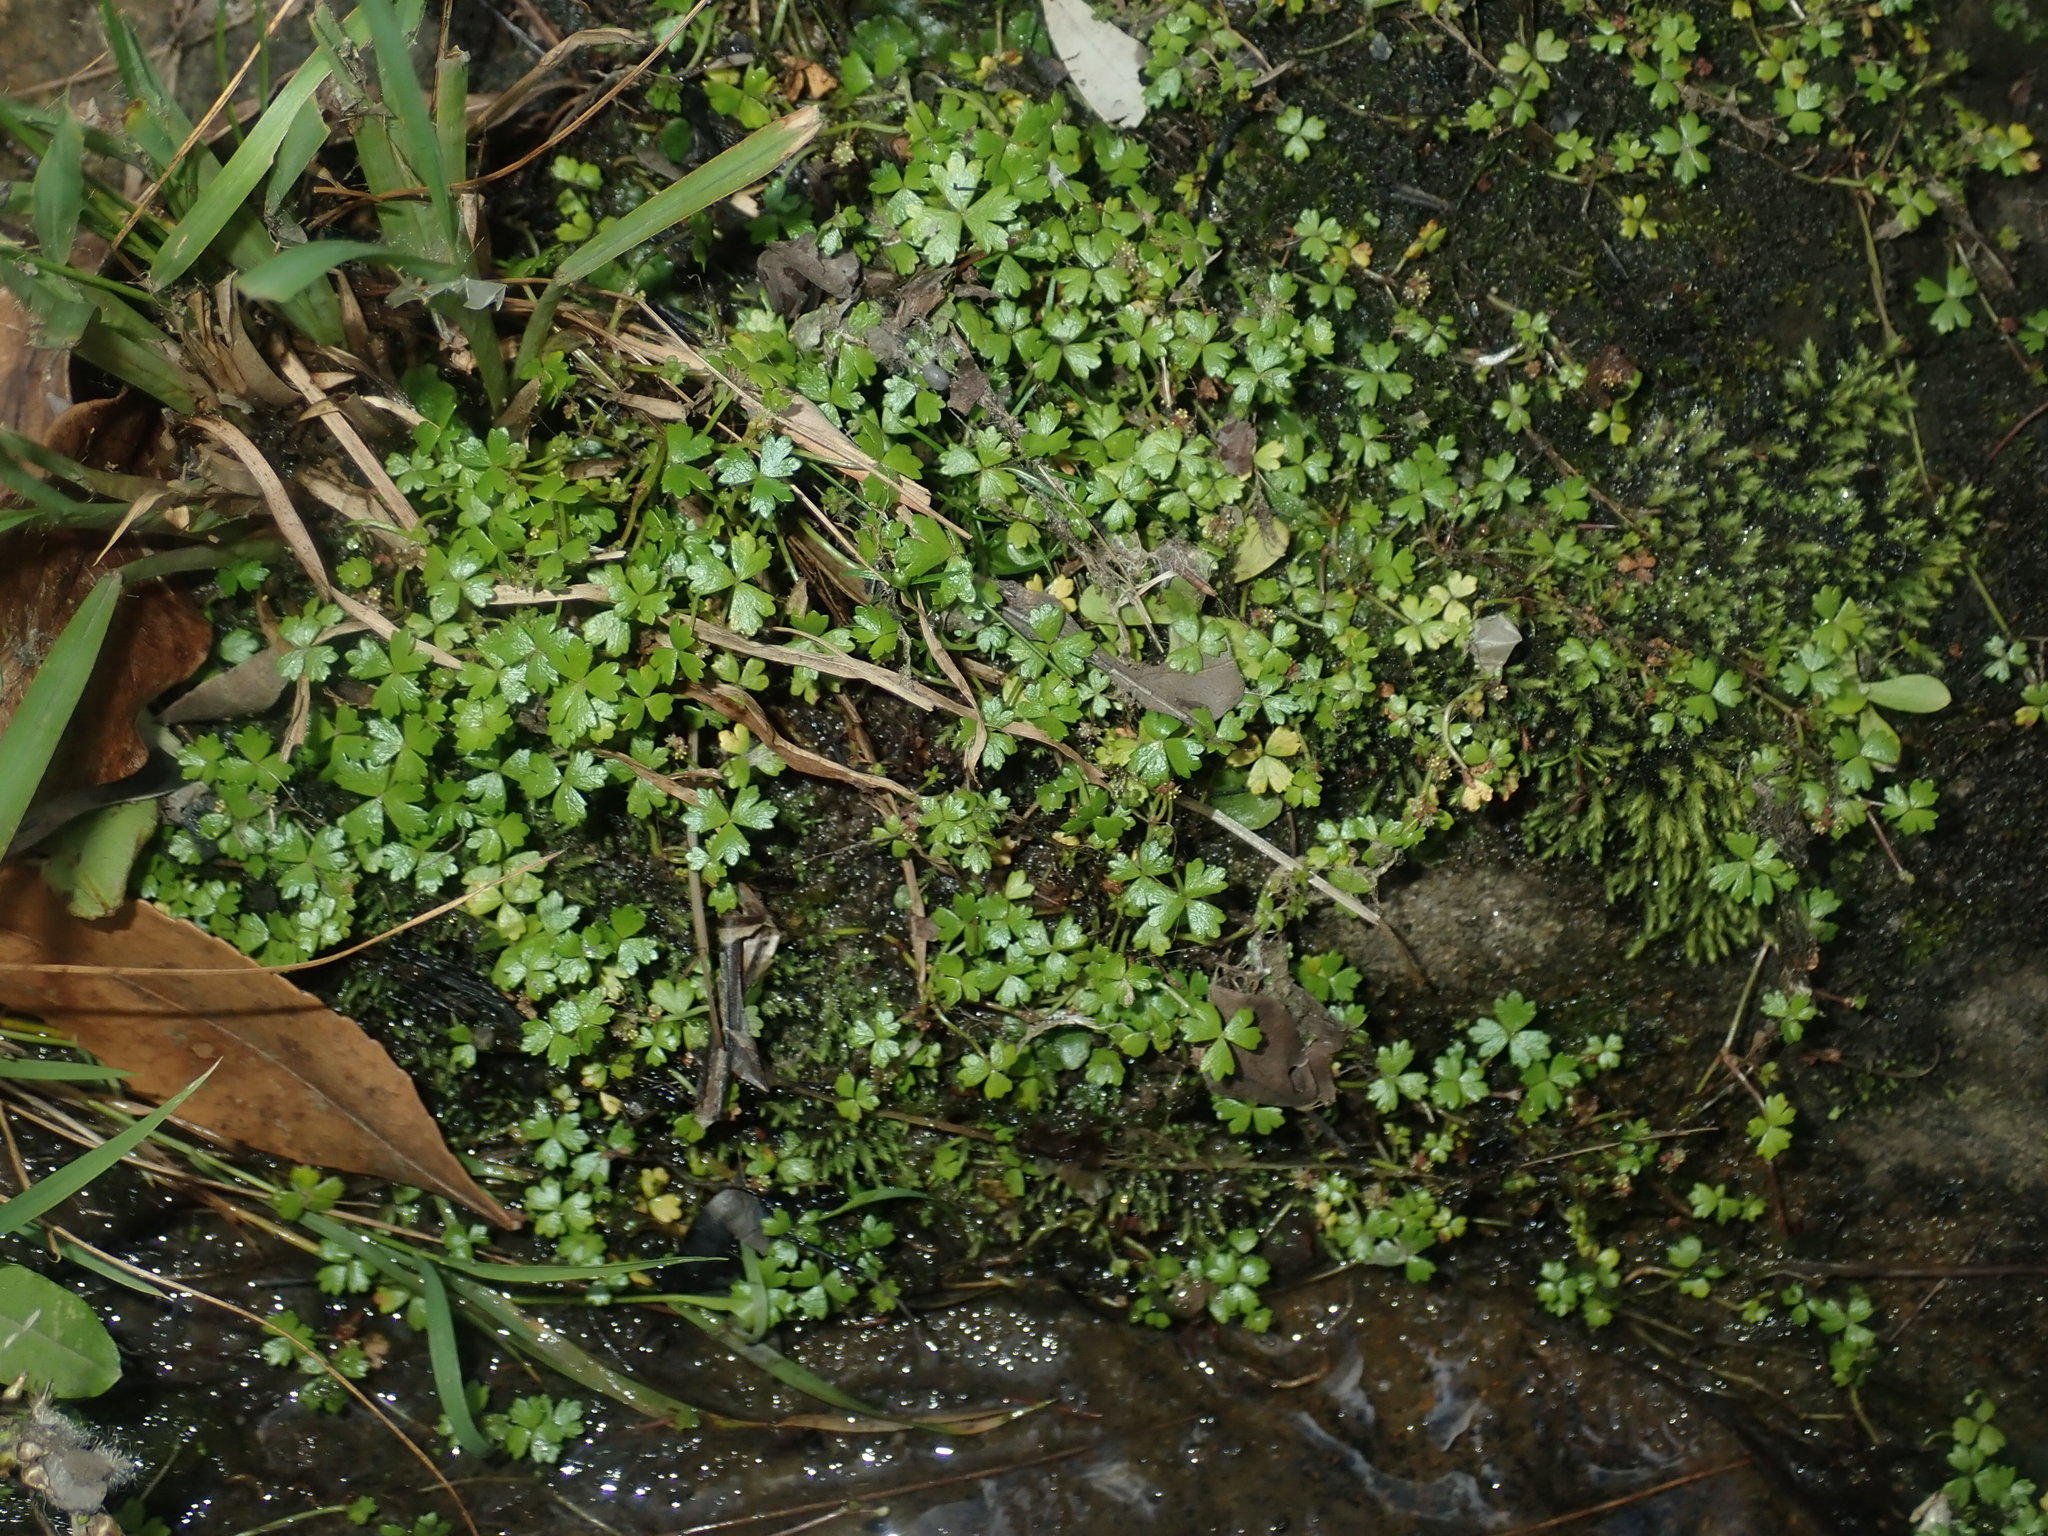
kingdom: Plantae
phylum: Tracheophyta
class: Magnoliopsida
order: Apiales
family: Araliaceae
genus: Hydrocotyle
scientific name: Hydrocotyle tripartita
